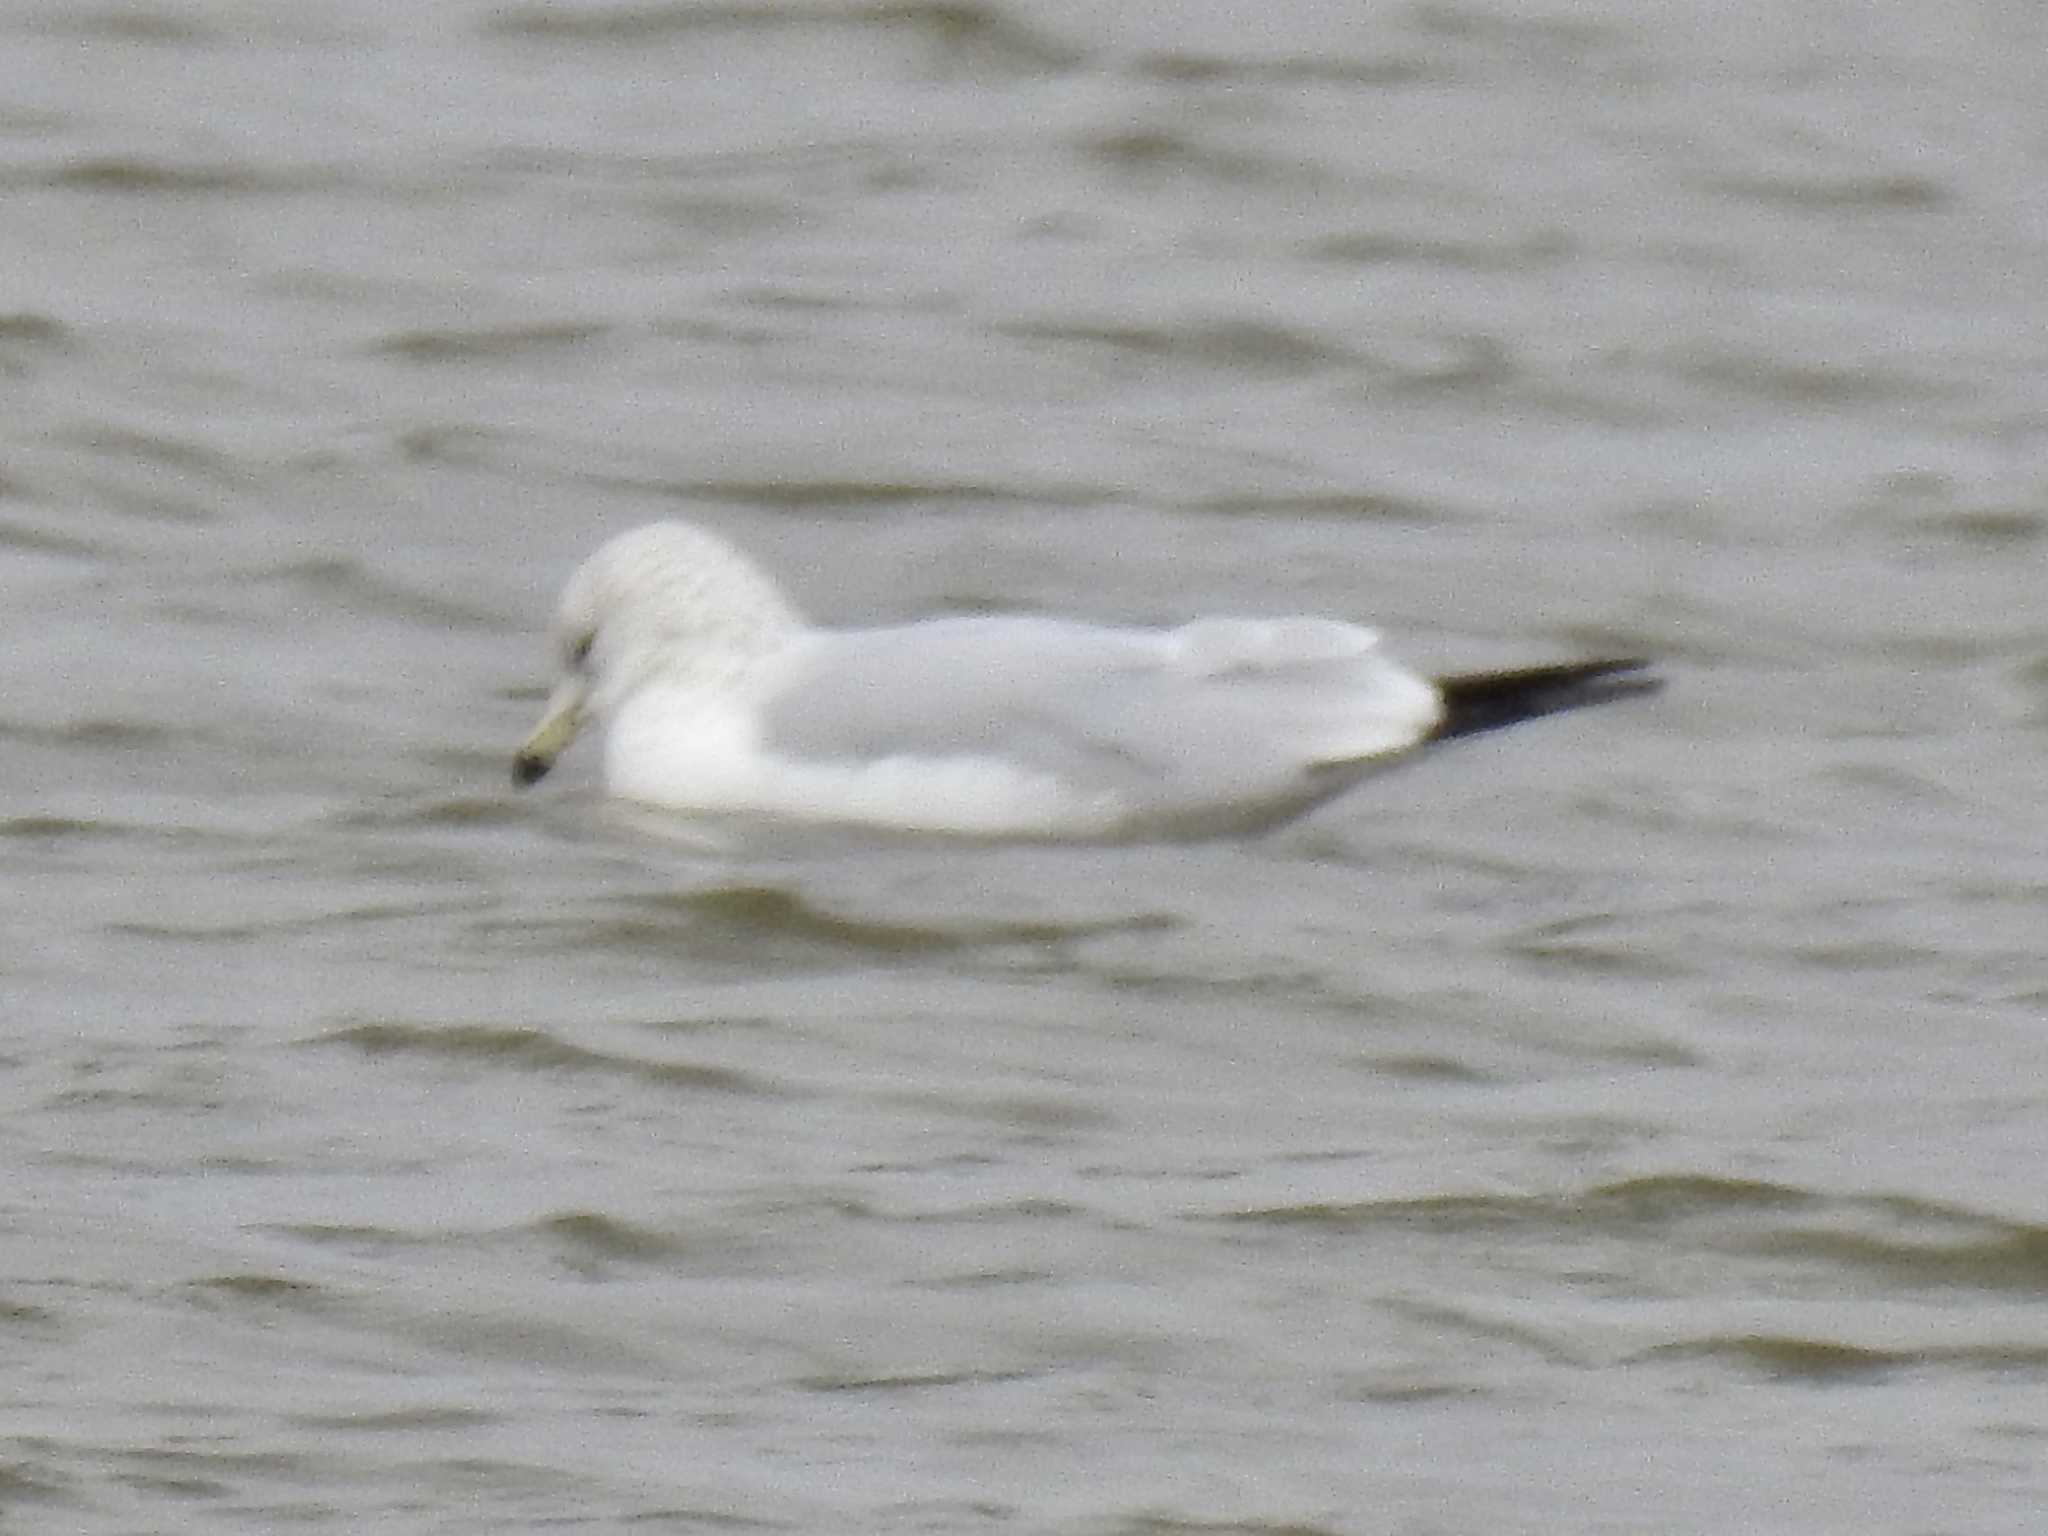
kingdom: Animalia
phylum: Chordata
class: Aves
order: Charadriiformes
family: Laridae
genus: Larus
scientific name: Larus delawarensis
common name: Ring-billed gull
